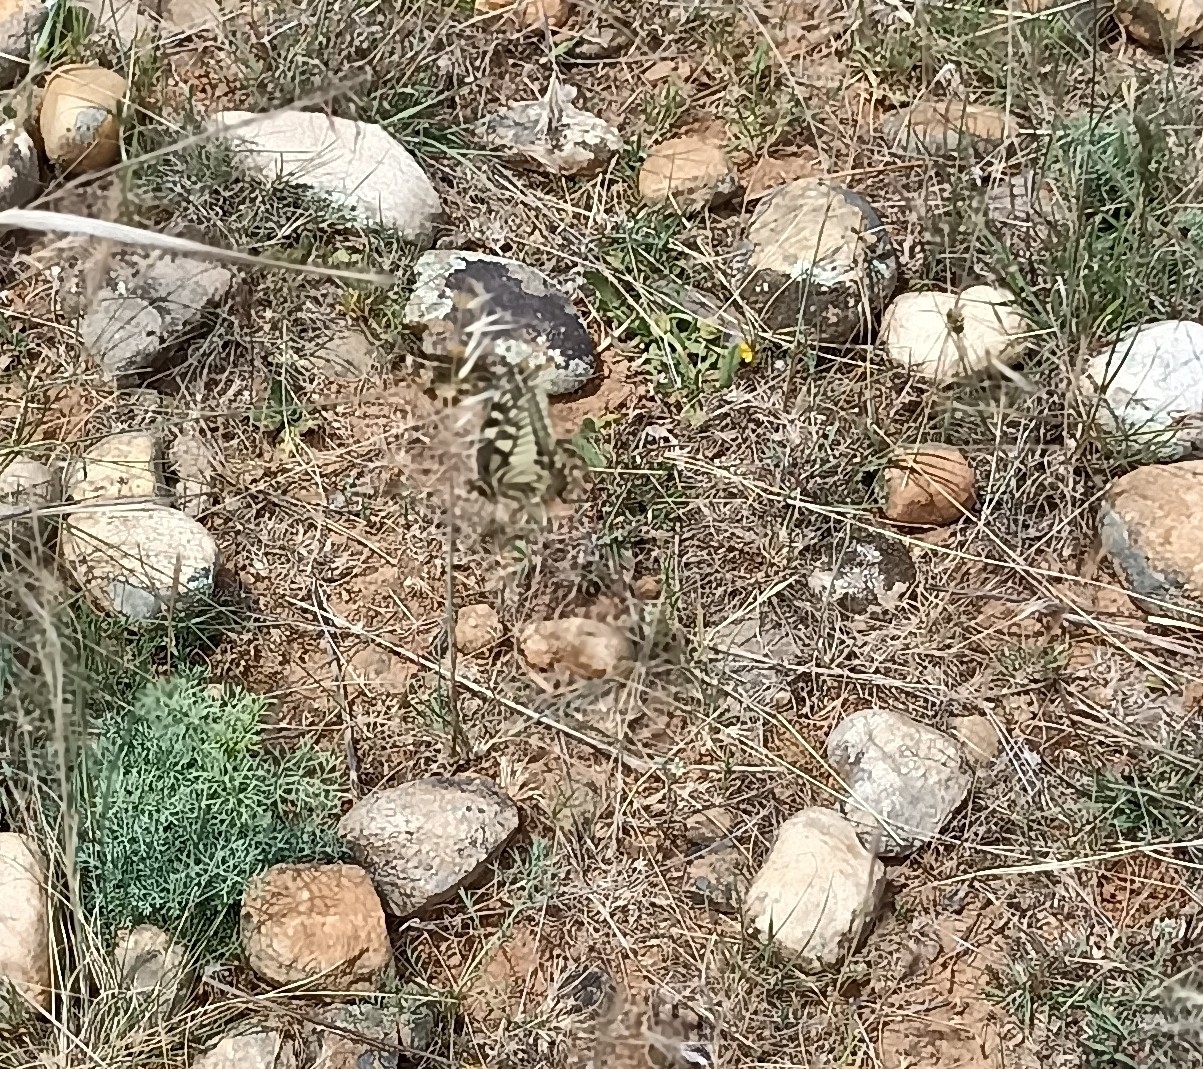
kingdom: Animalia
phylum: Arthropoda
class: Insecta
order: Lepidoptera
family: Papilionidae
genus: Papilio
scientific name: Papilio machaon
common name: Swallowtail
